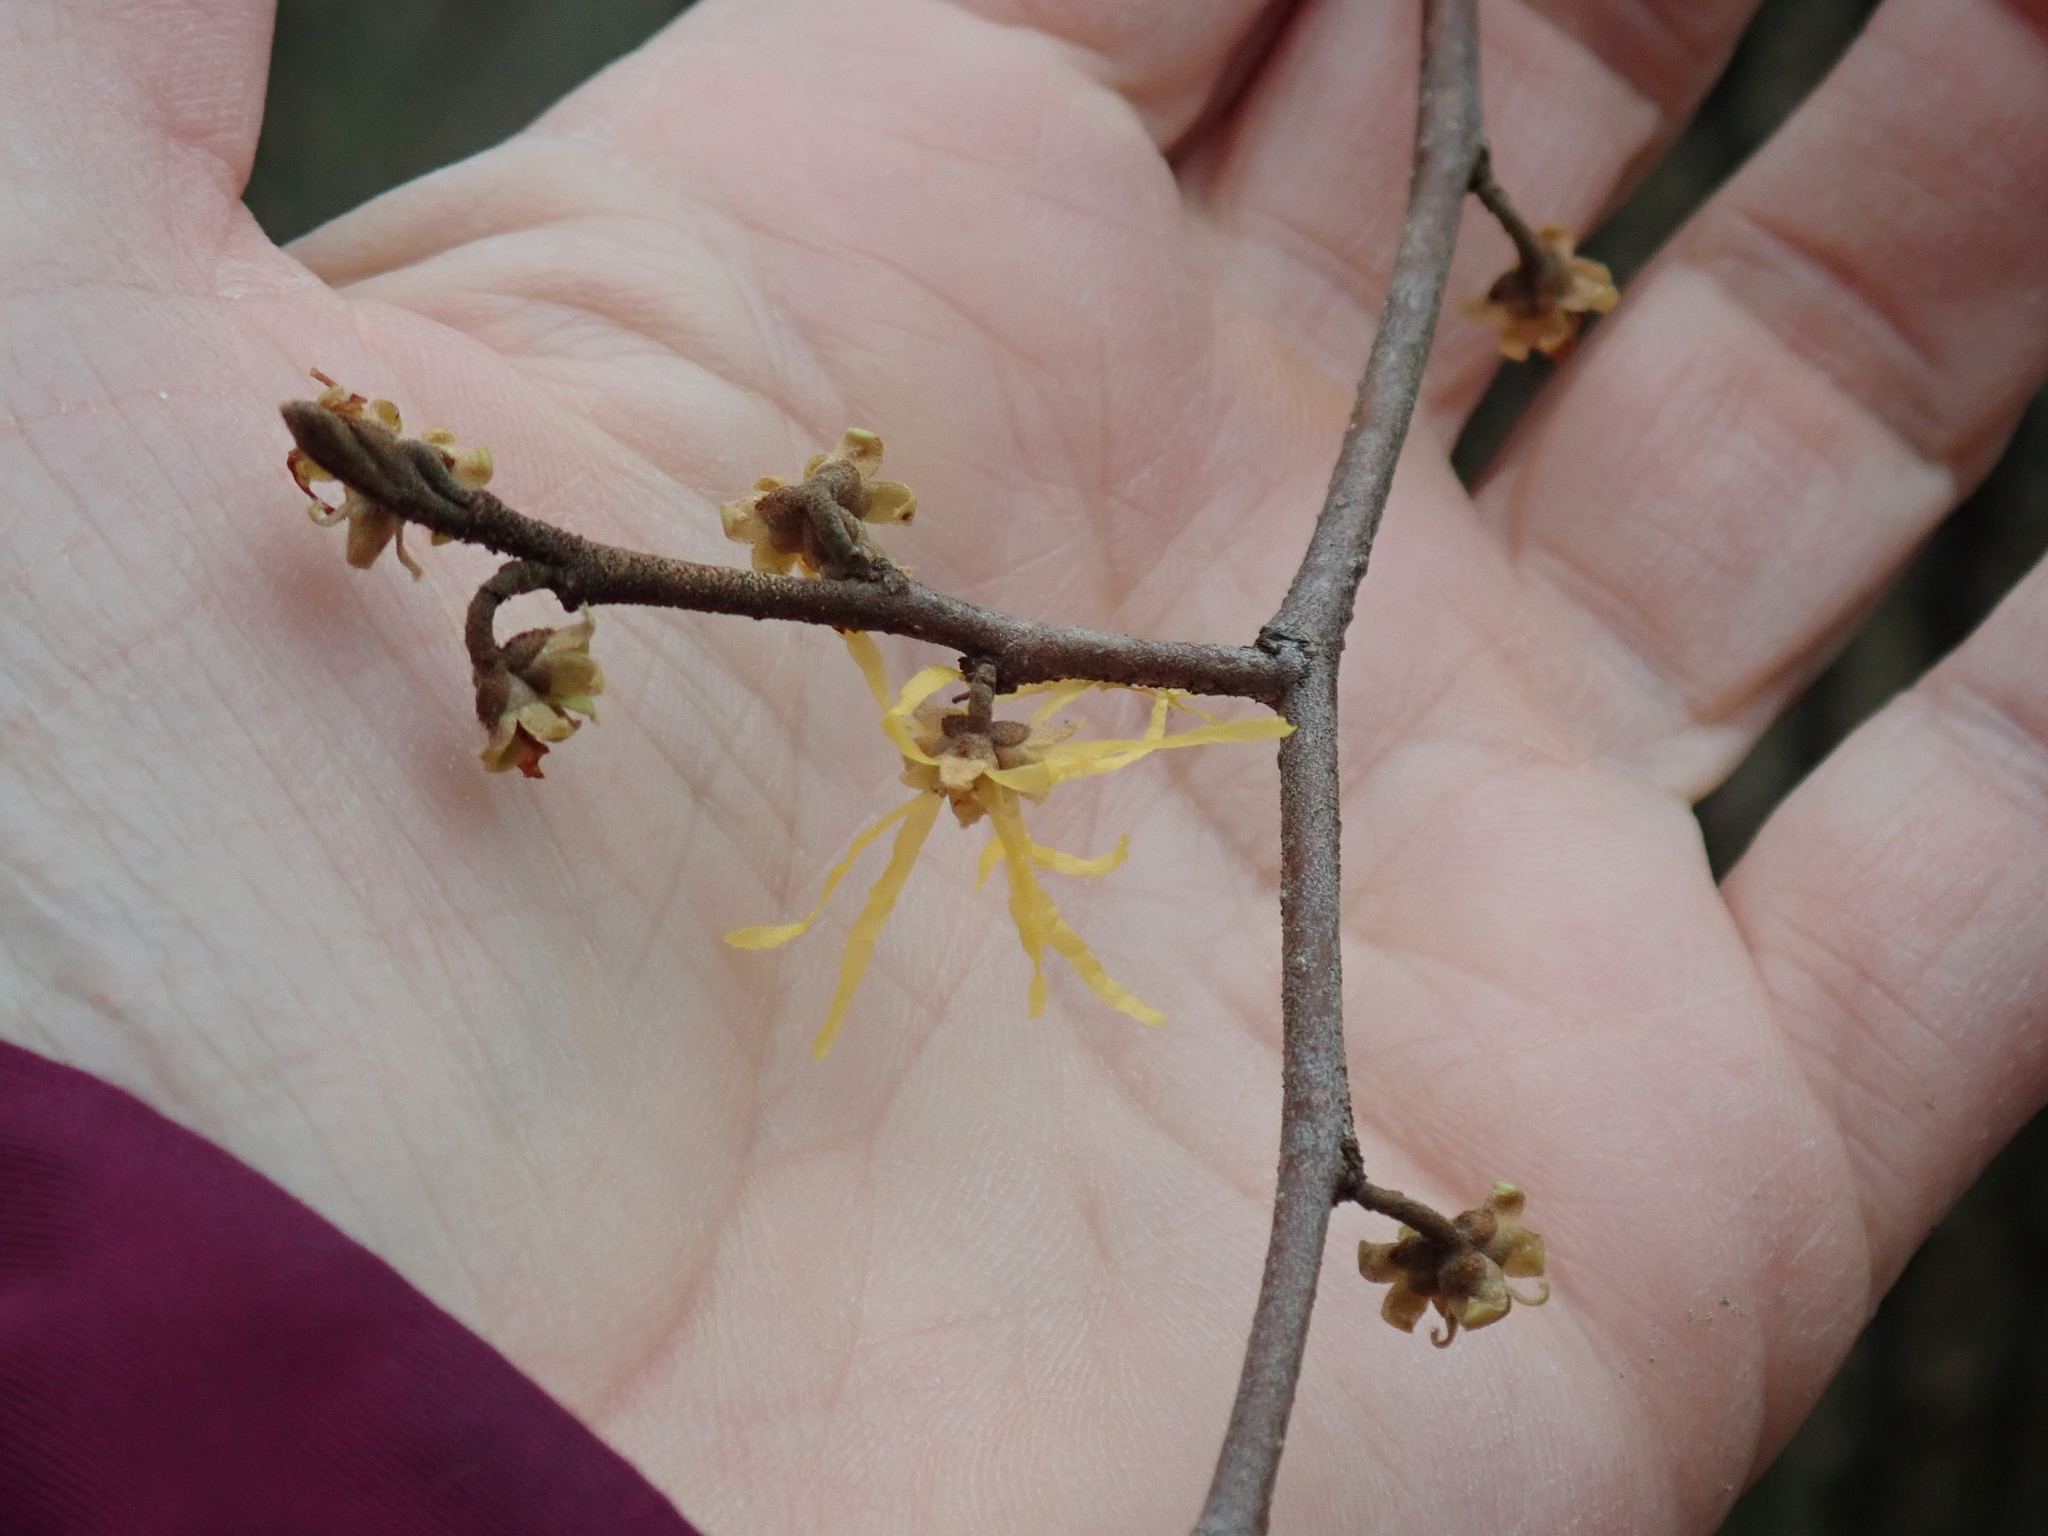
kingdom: Plantae
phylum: Tracheophyta
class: Magnoliopsida
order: Saxifragales
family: Hamamelidaceae
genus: Hamamelis
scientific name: Hamamelis virginiana
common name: Witch-hazel
